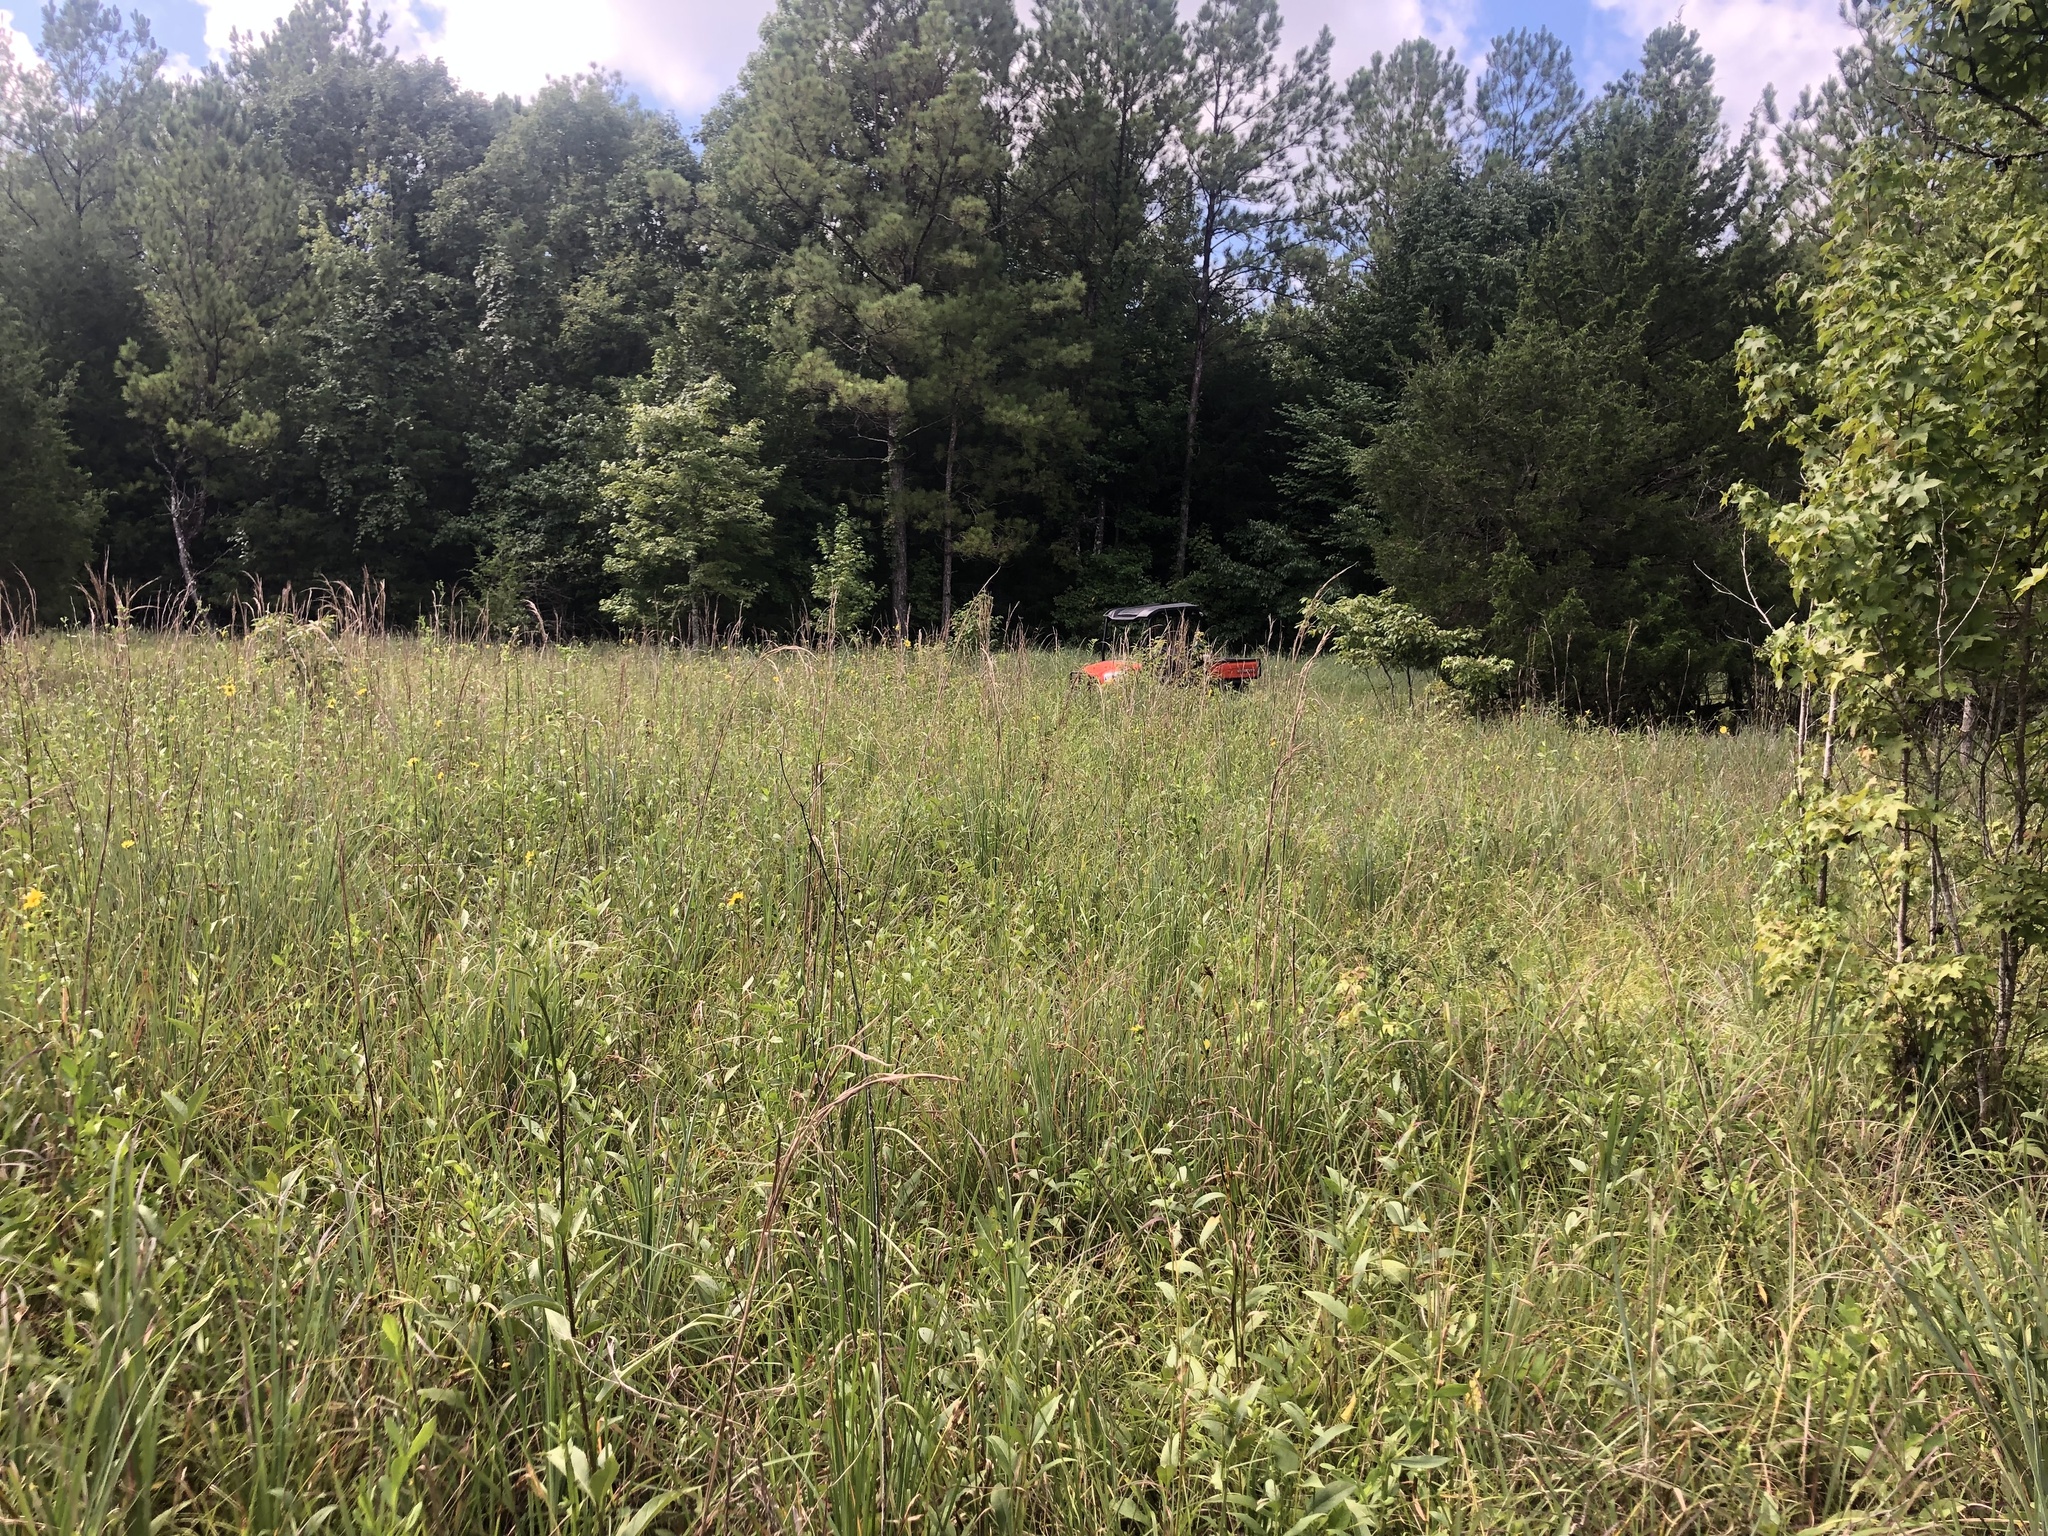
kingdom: Plantae
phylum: Tracheophyta
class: Liliopsida
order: Poales
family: Poaceae
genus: Andropogon
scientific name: Andropogon gerardi
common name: Big bluestem
